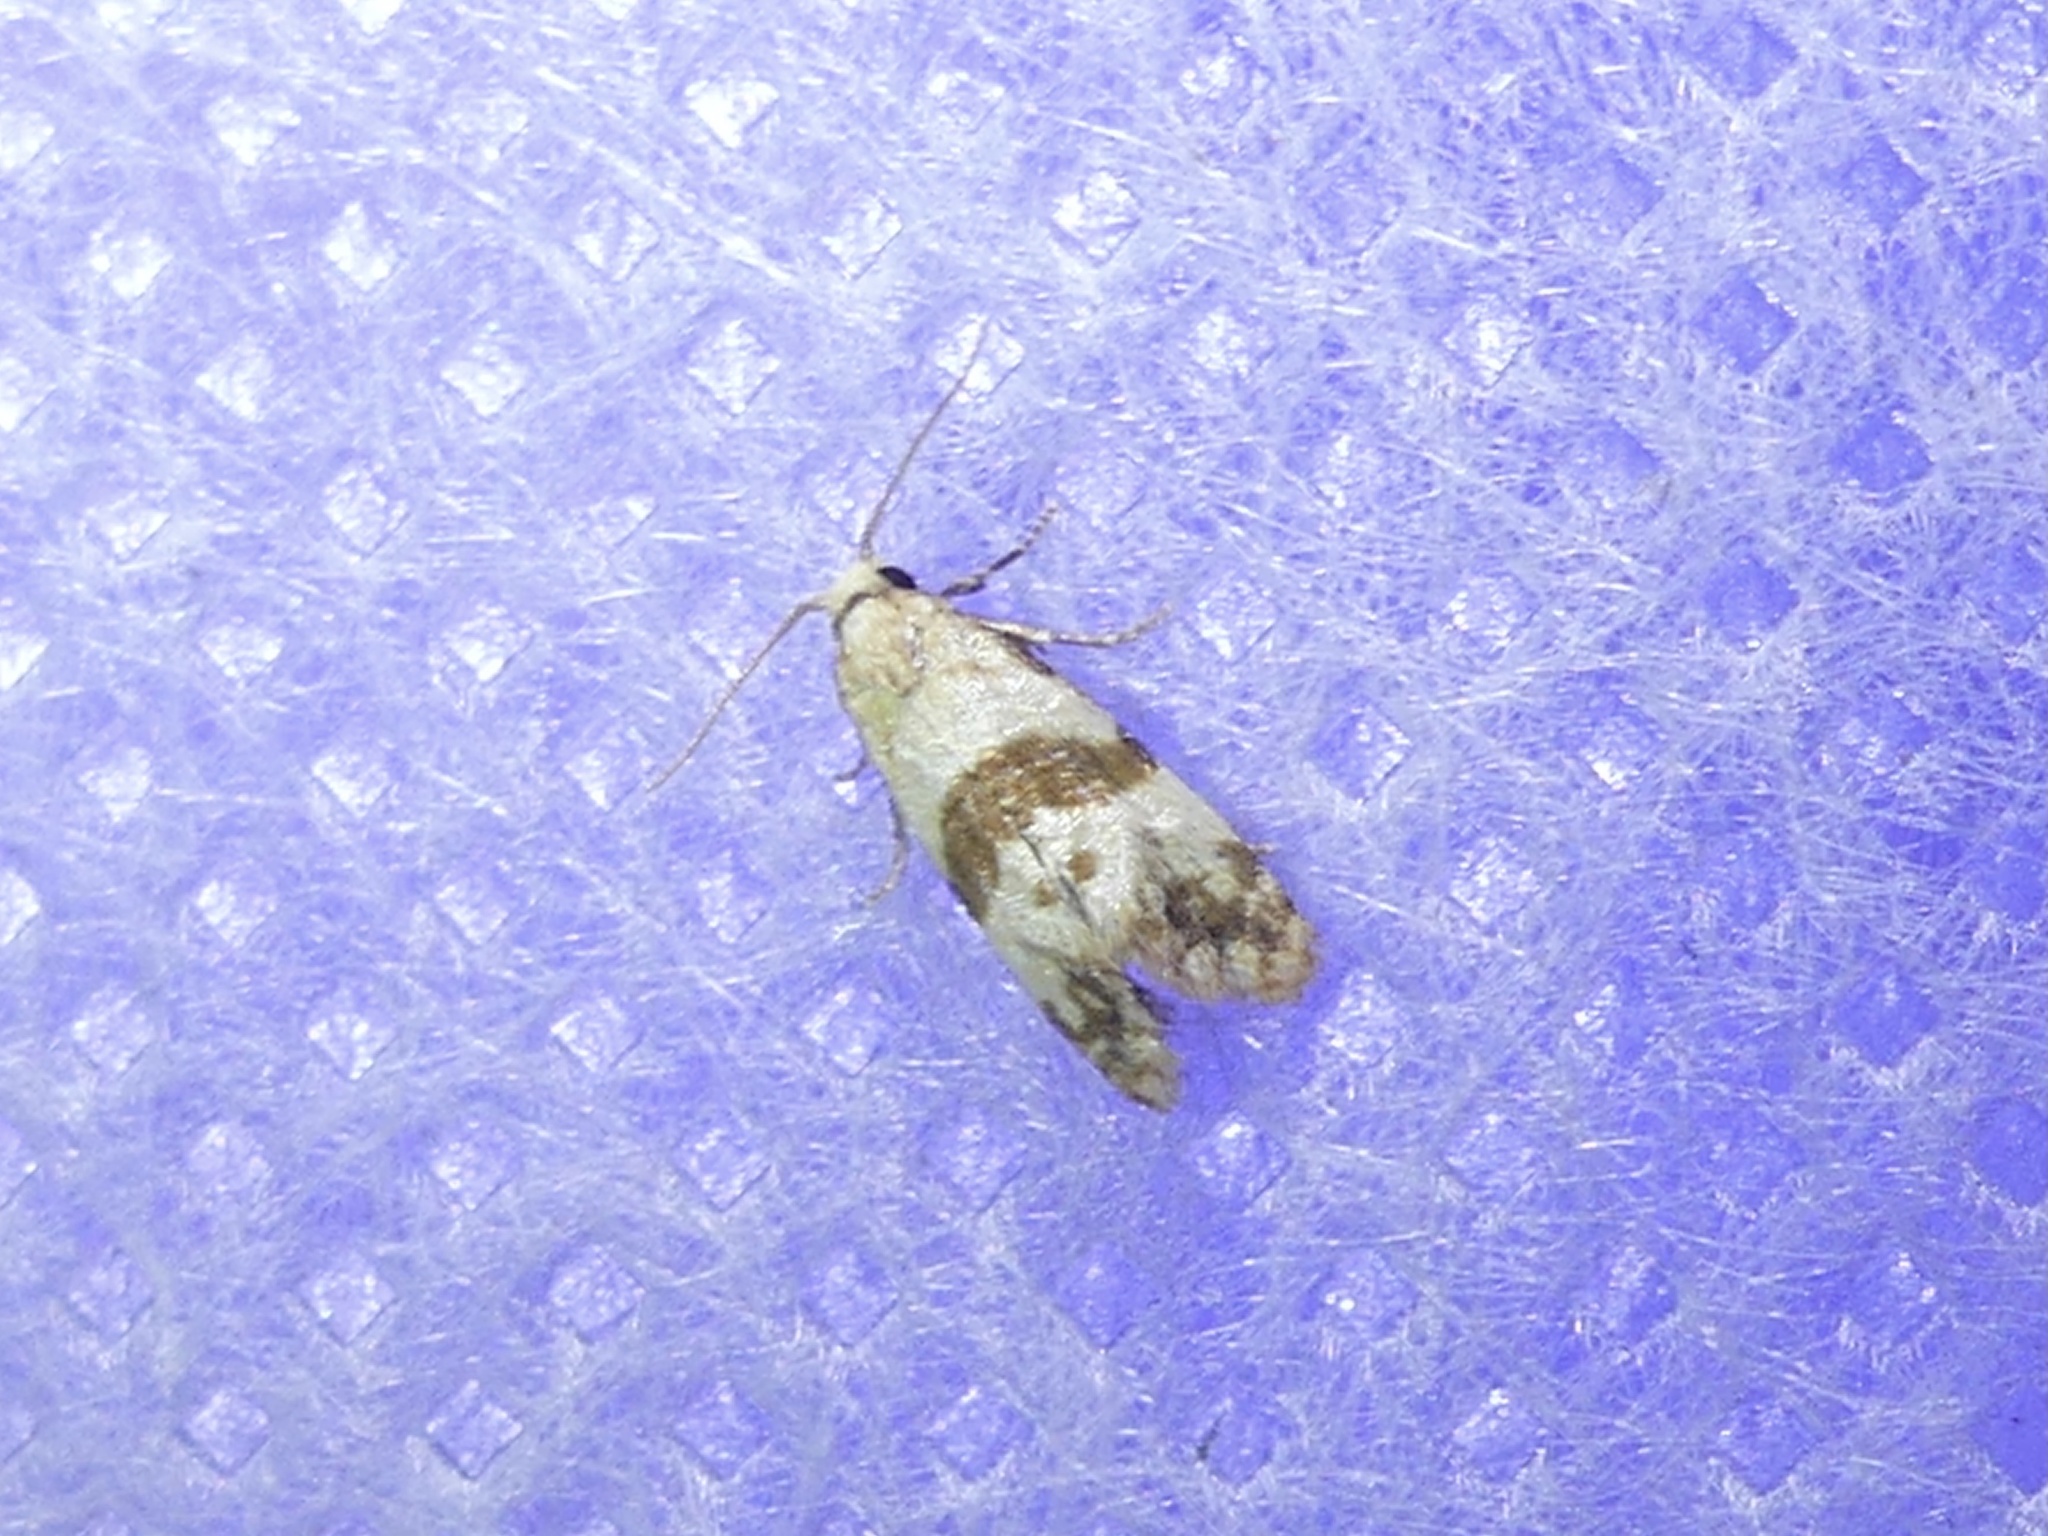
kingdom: Animalia
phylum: Arthropoda
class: Insecta
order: Lepidoptera
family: Tortricidae
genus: Phalonidia
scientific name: Phalonidia contractana
